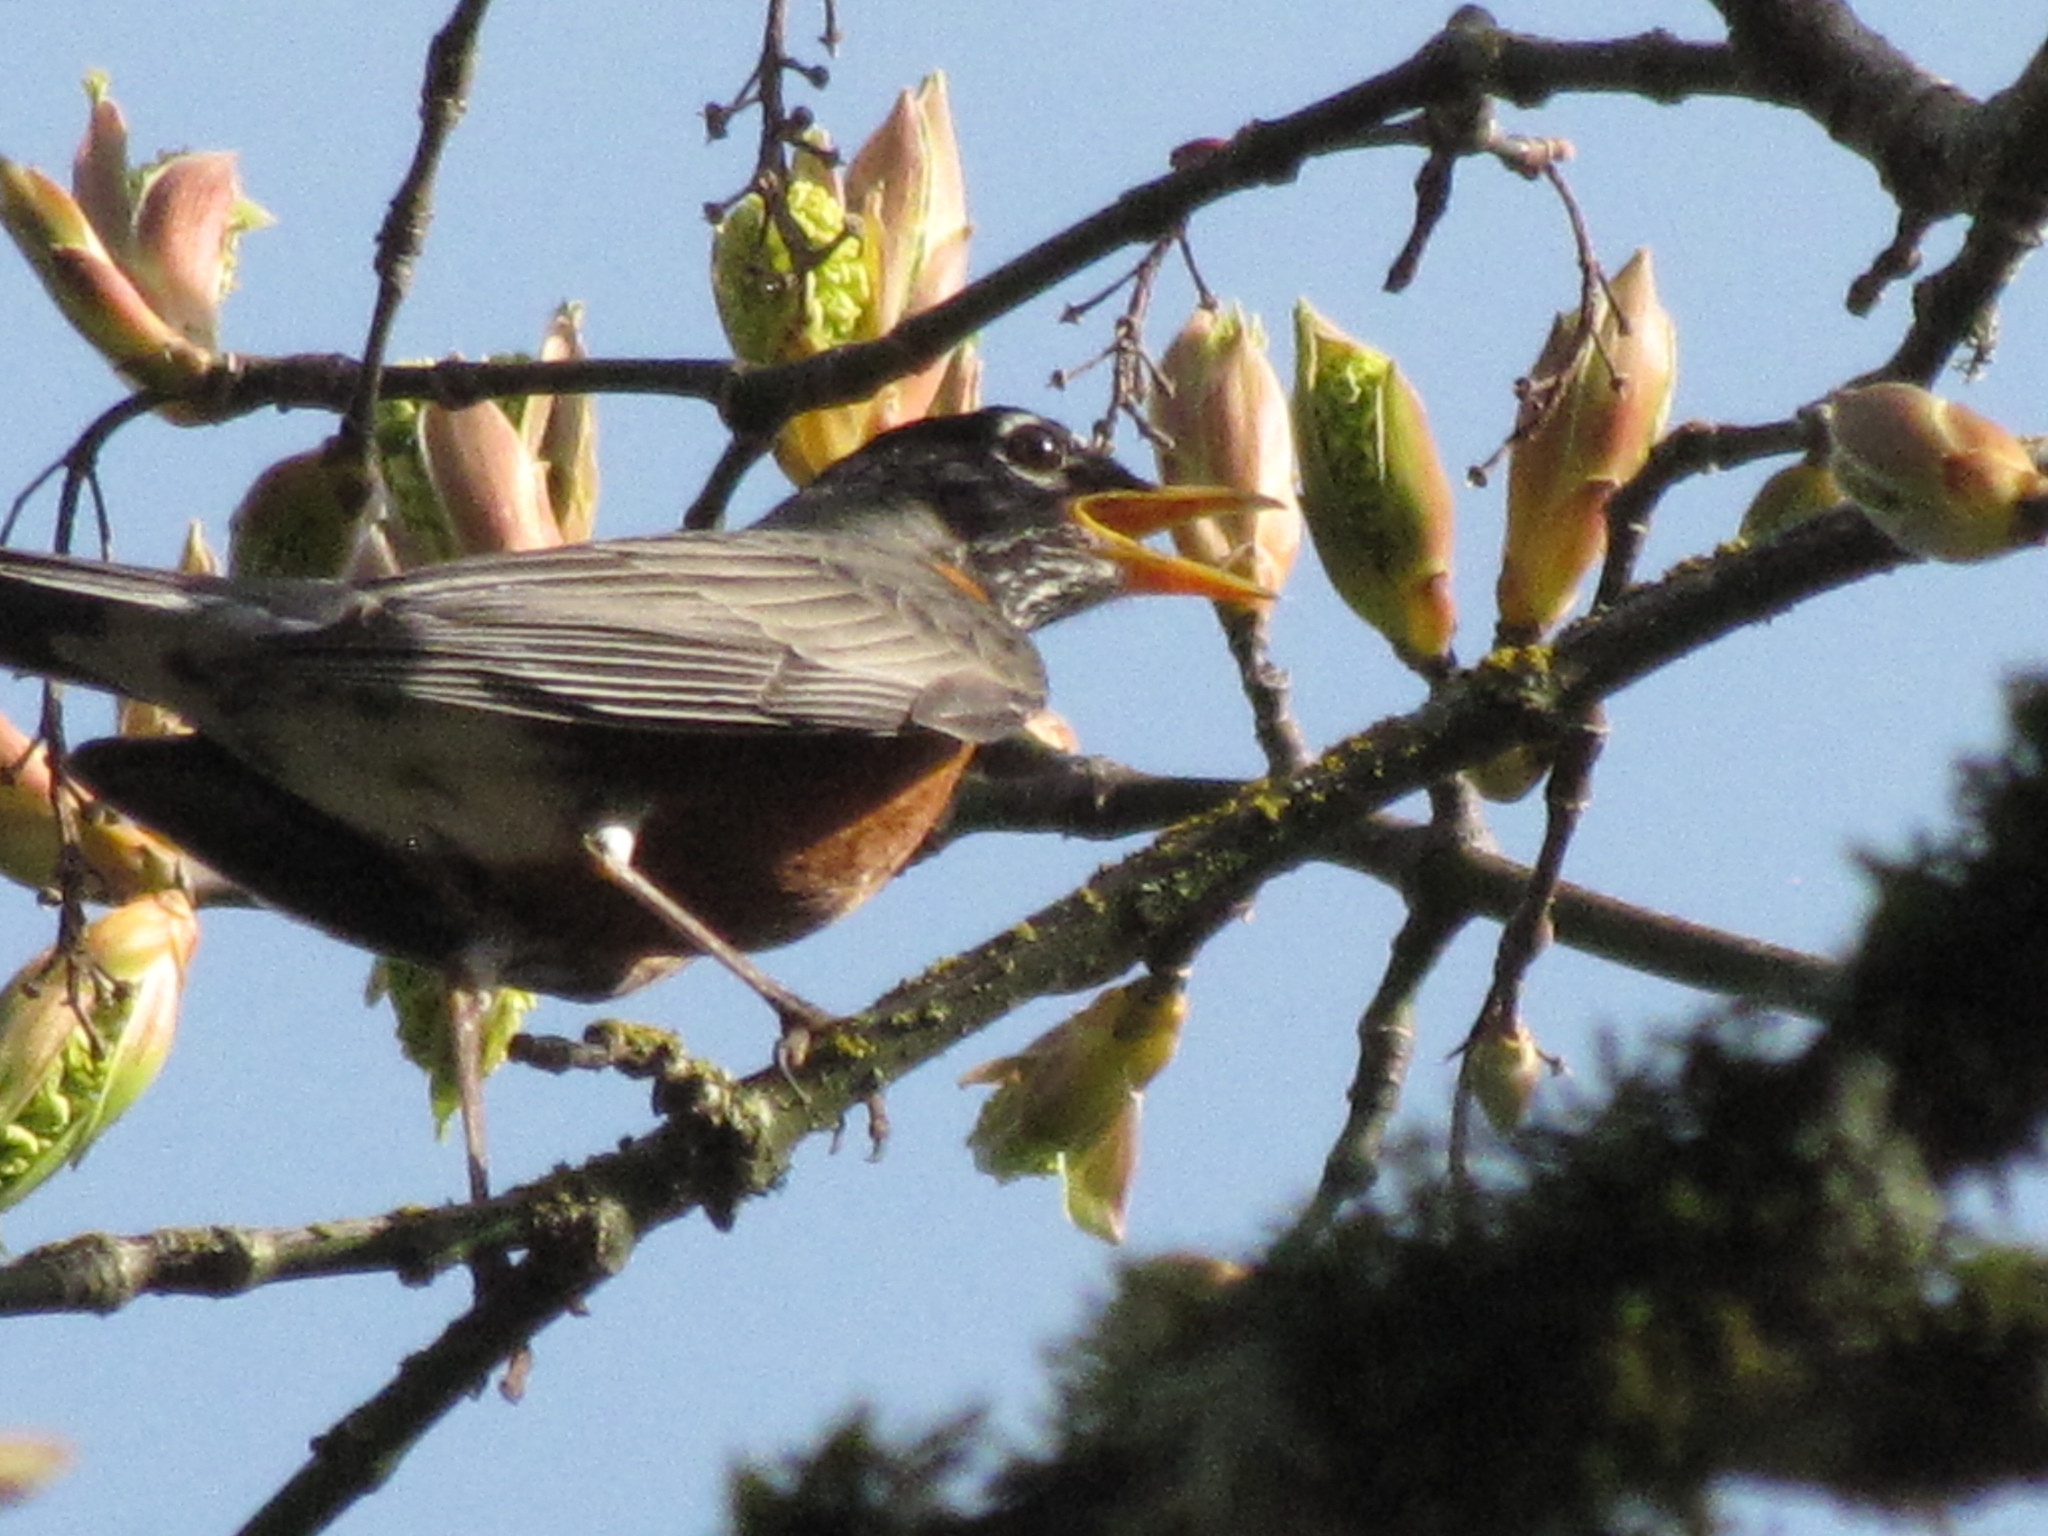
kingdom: Animalia
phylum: Chordata
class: Aves
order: Passeriformes
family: Turdidae
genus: Turdus
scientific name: Turdus migratorius
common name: American robin
